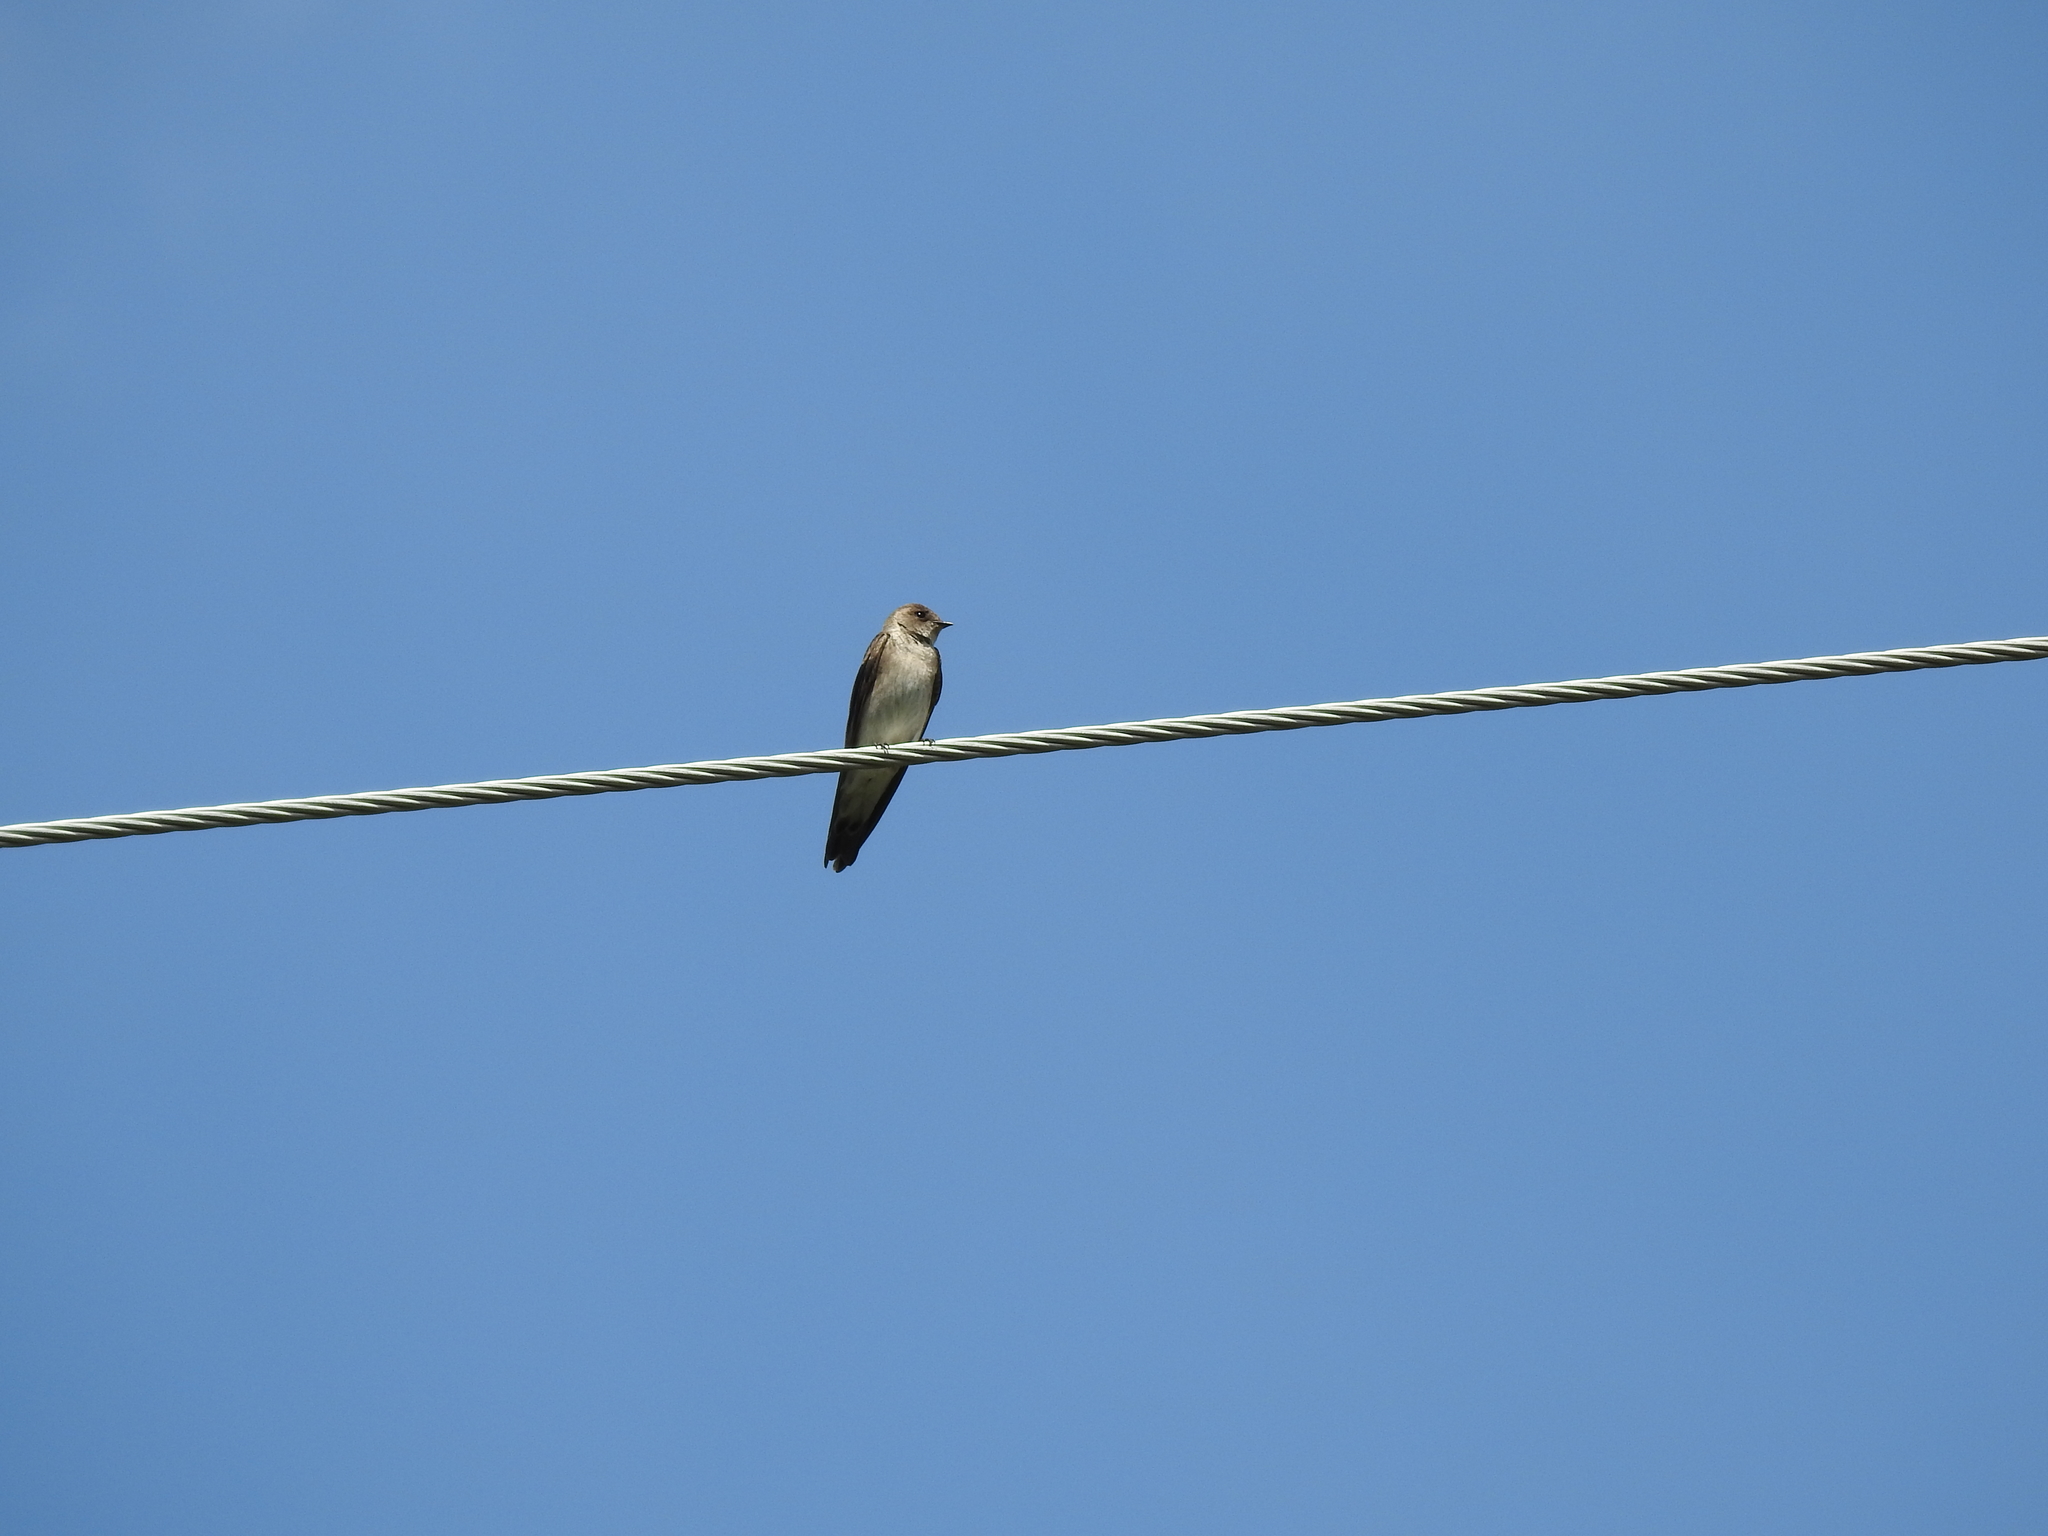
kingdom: Animalia
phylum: Chordata
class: Aves
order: Passeriformes
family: Hirundinidae
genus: Stelgidopteryx
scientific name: Stelgidopteryx serripennis
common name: Northern rough-winged swallow
